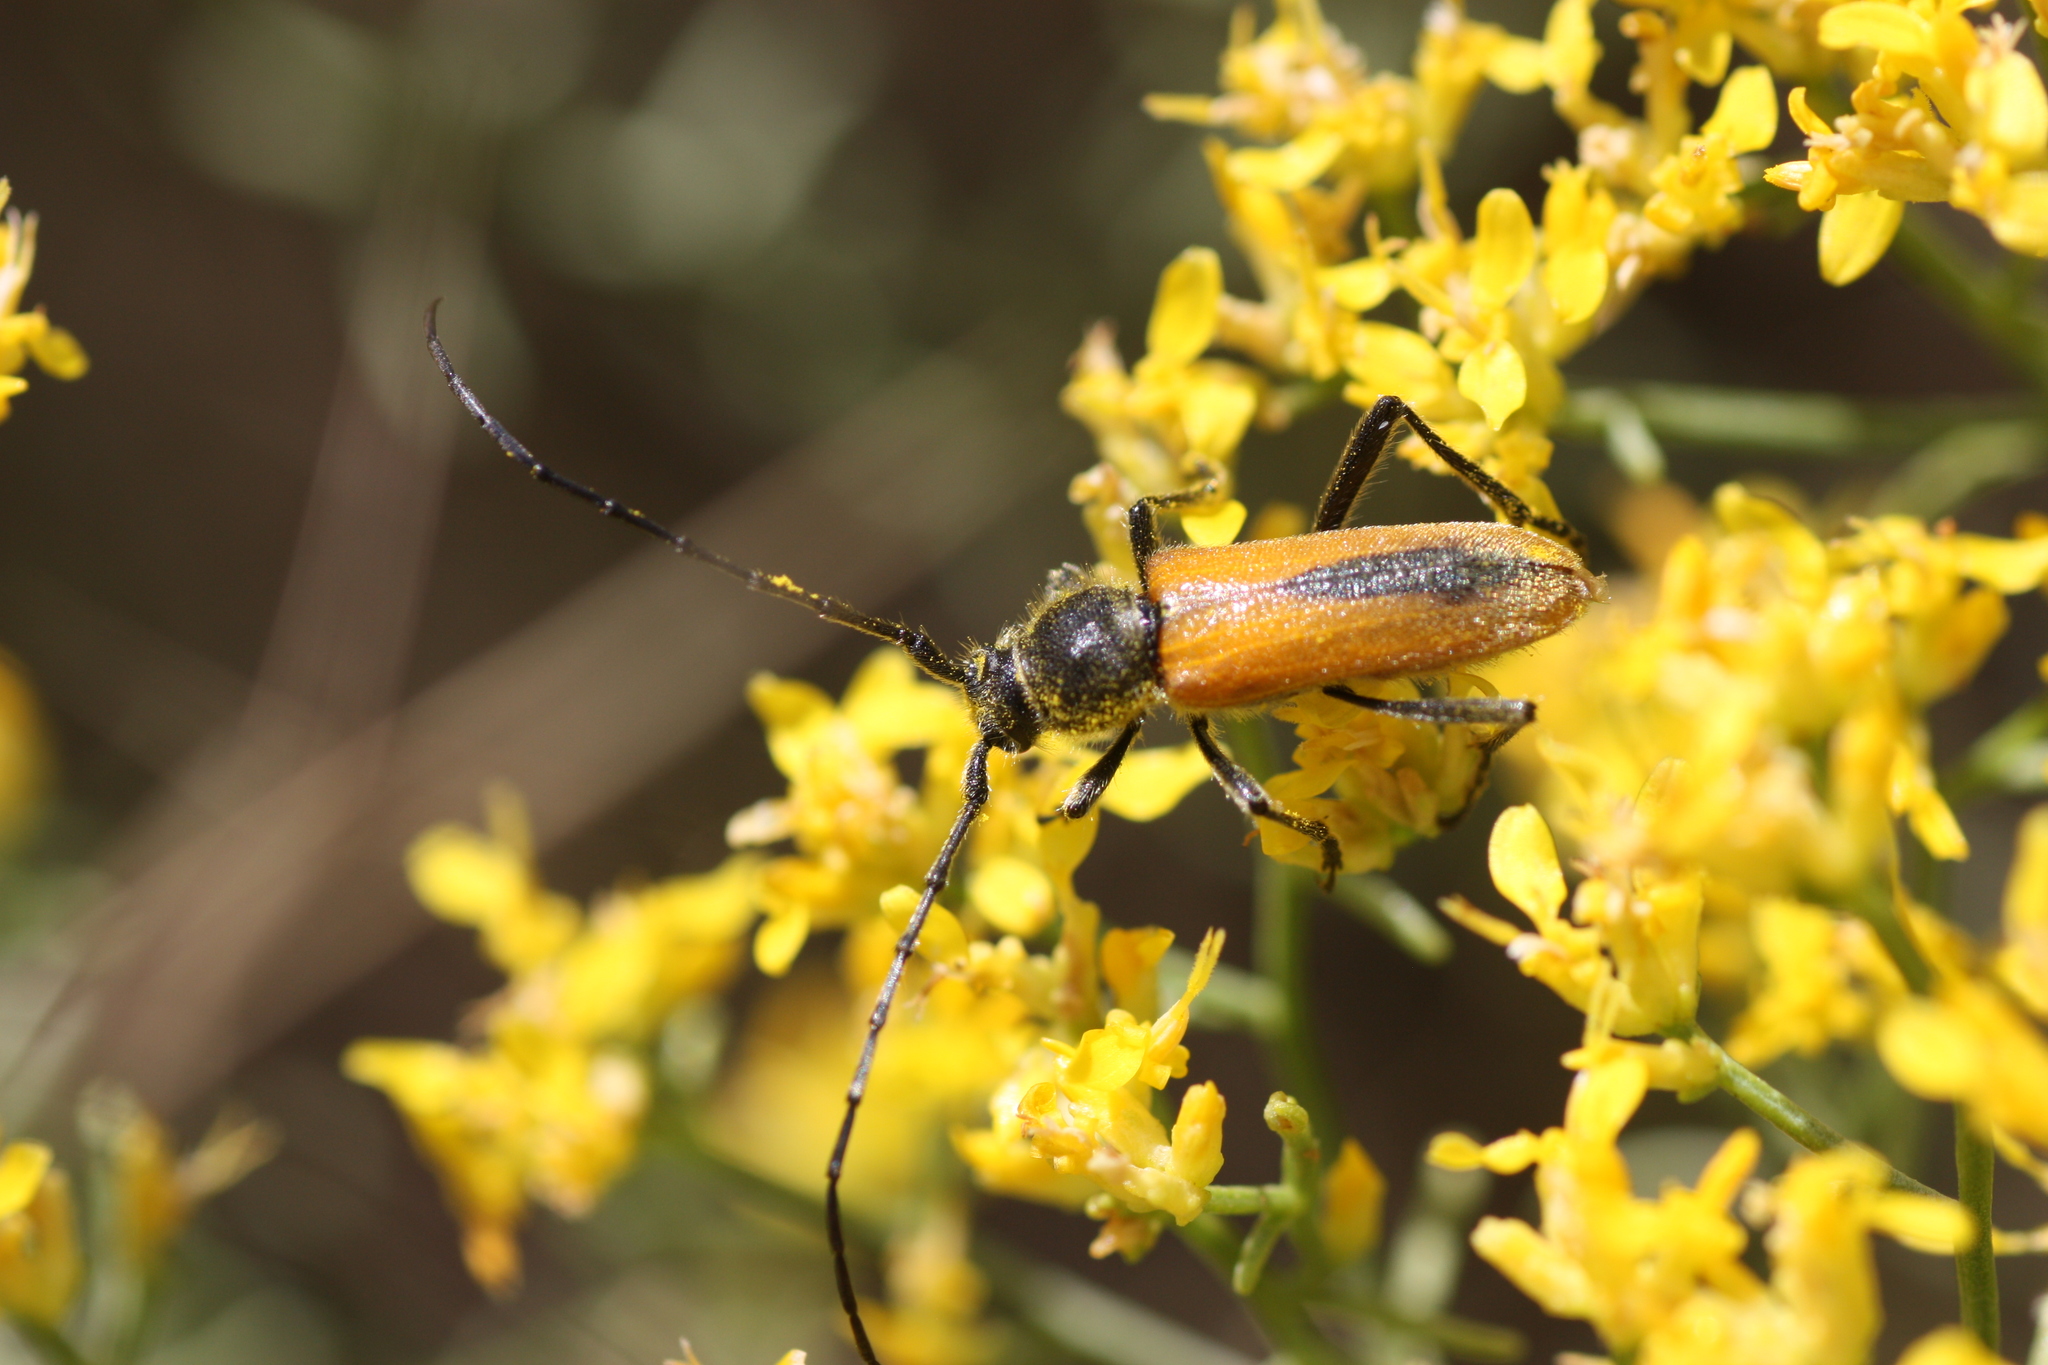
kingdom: Animalia
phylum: Arthropoda
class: Insecta
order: Coleoptera
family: Cerambycidae
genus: Crossidius
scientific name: Crossidius pulchellus
